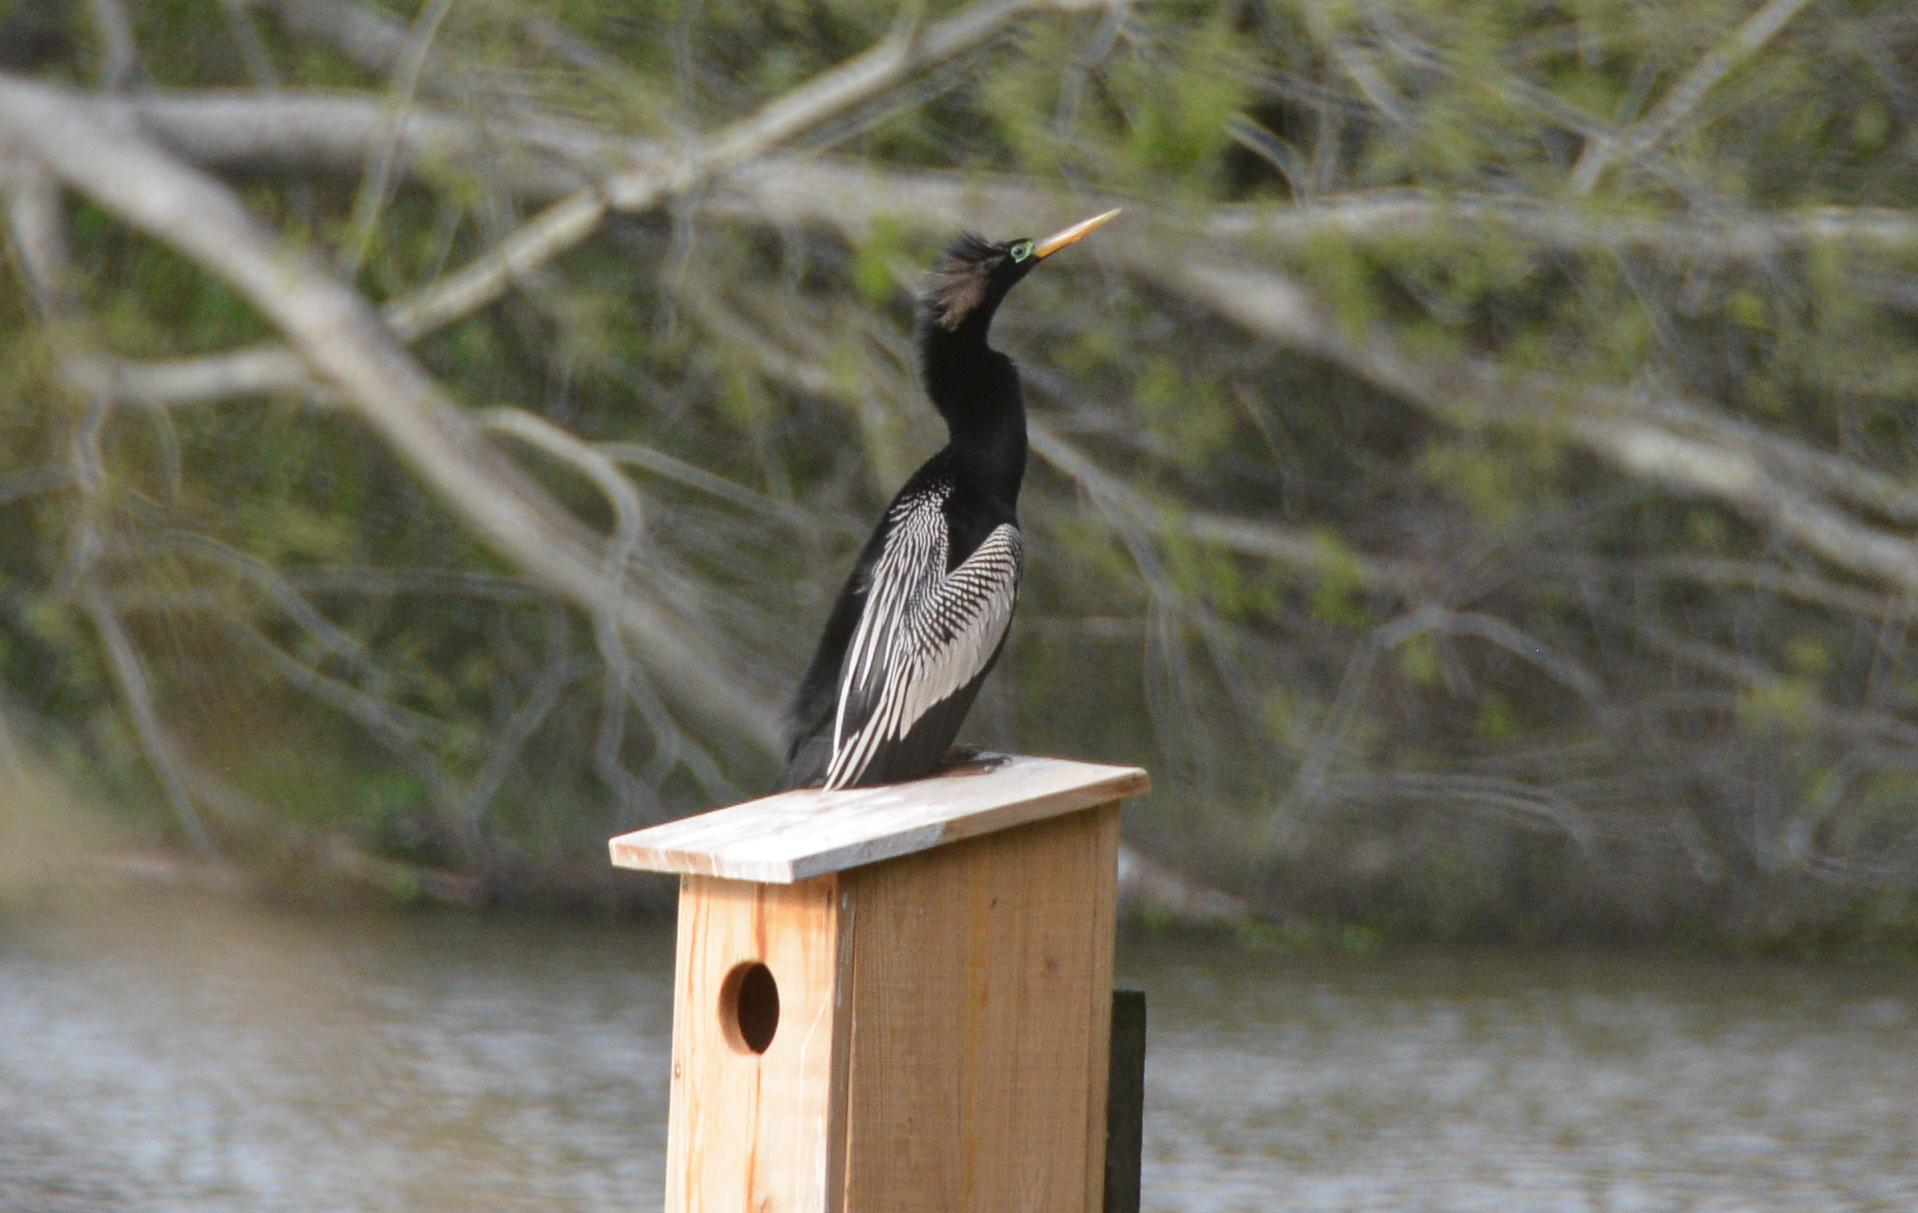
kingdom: Animalia
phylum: Chordata
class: Aves
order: Suliformes
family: Anhingidae
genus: Anhinga
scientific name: Anhinga anhinga
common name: Anhinga
